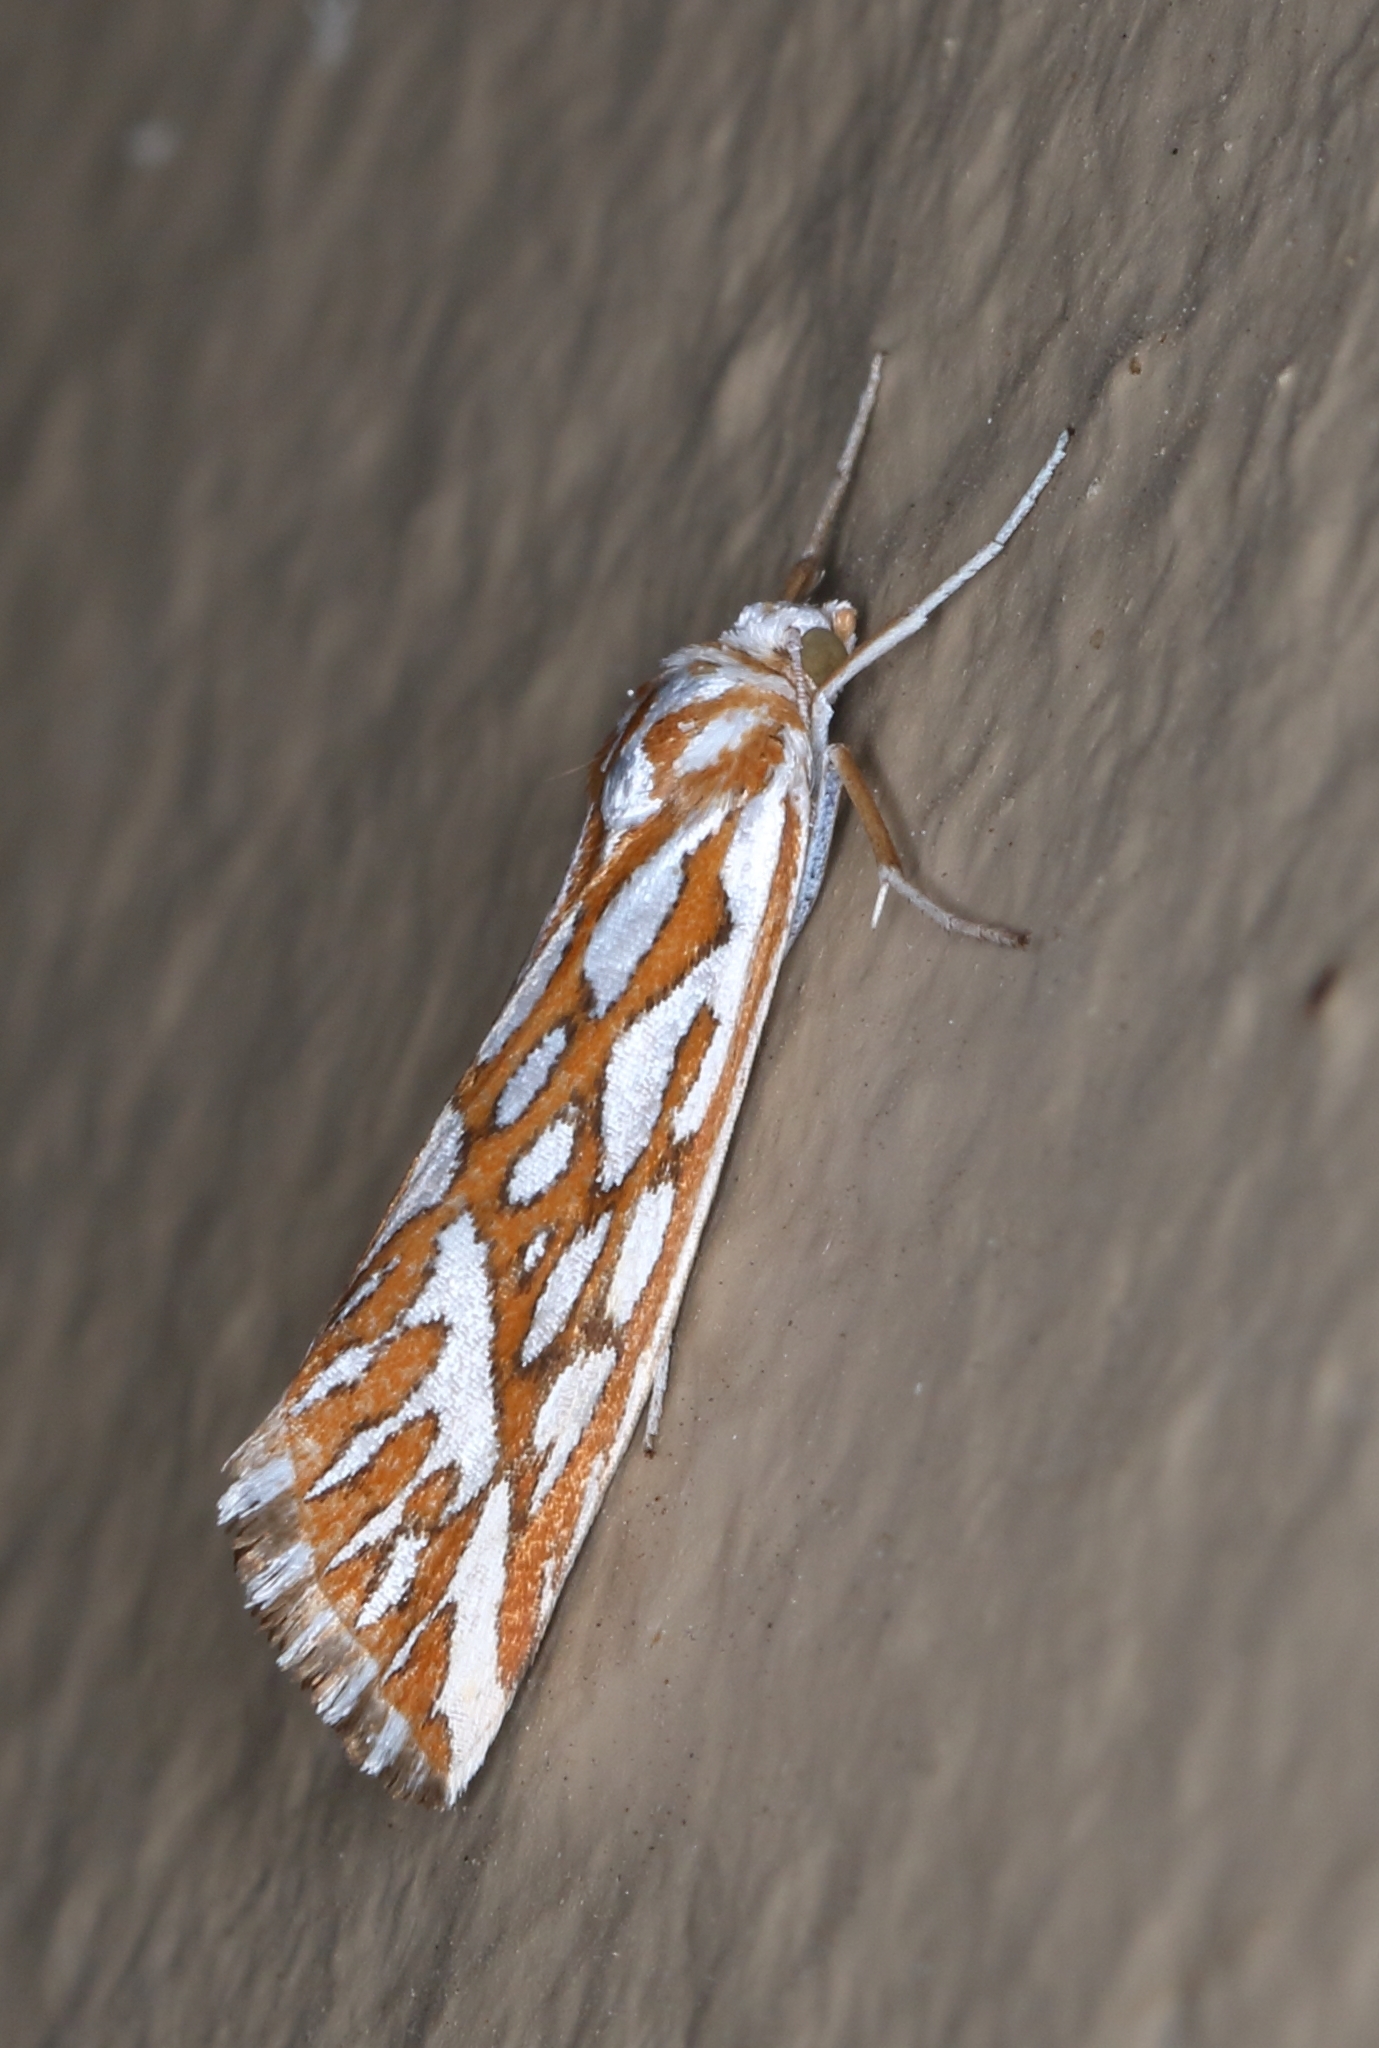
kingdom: Animalia
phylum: Arthropoda
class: Insecta
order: Lepidoptera
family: Geometridae
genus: Argyrophora
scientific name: Argyrophora trofonia
